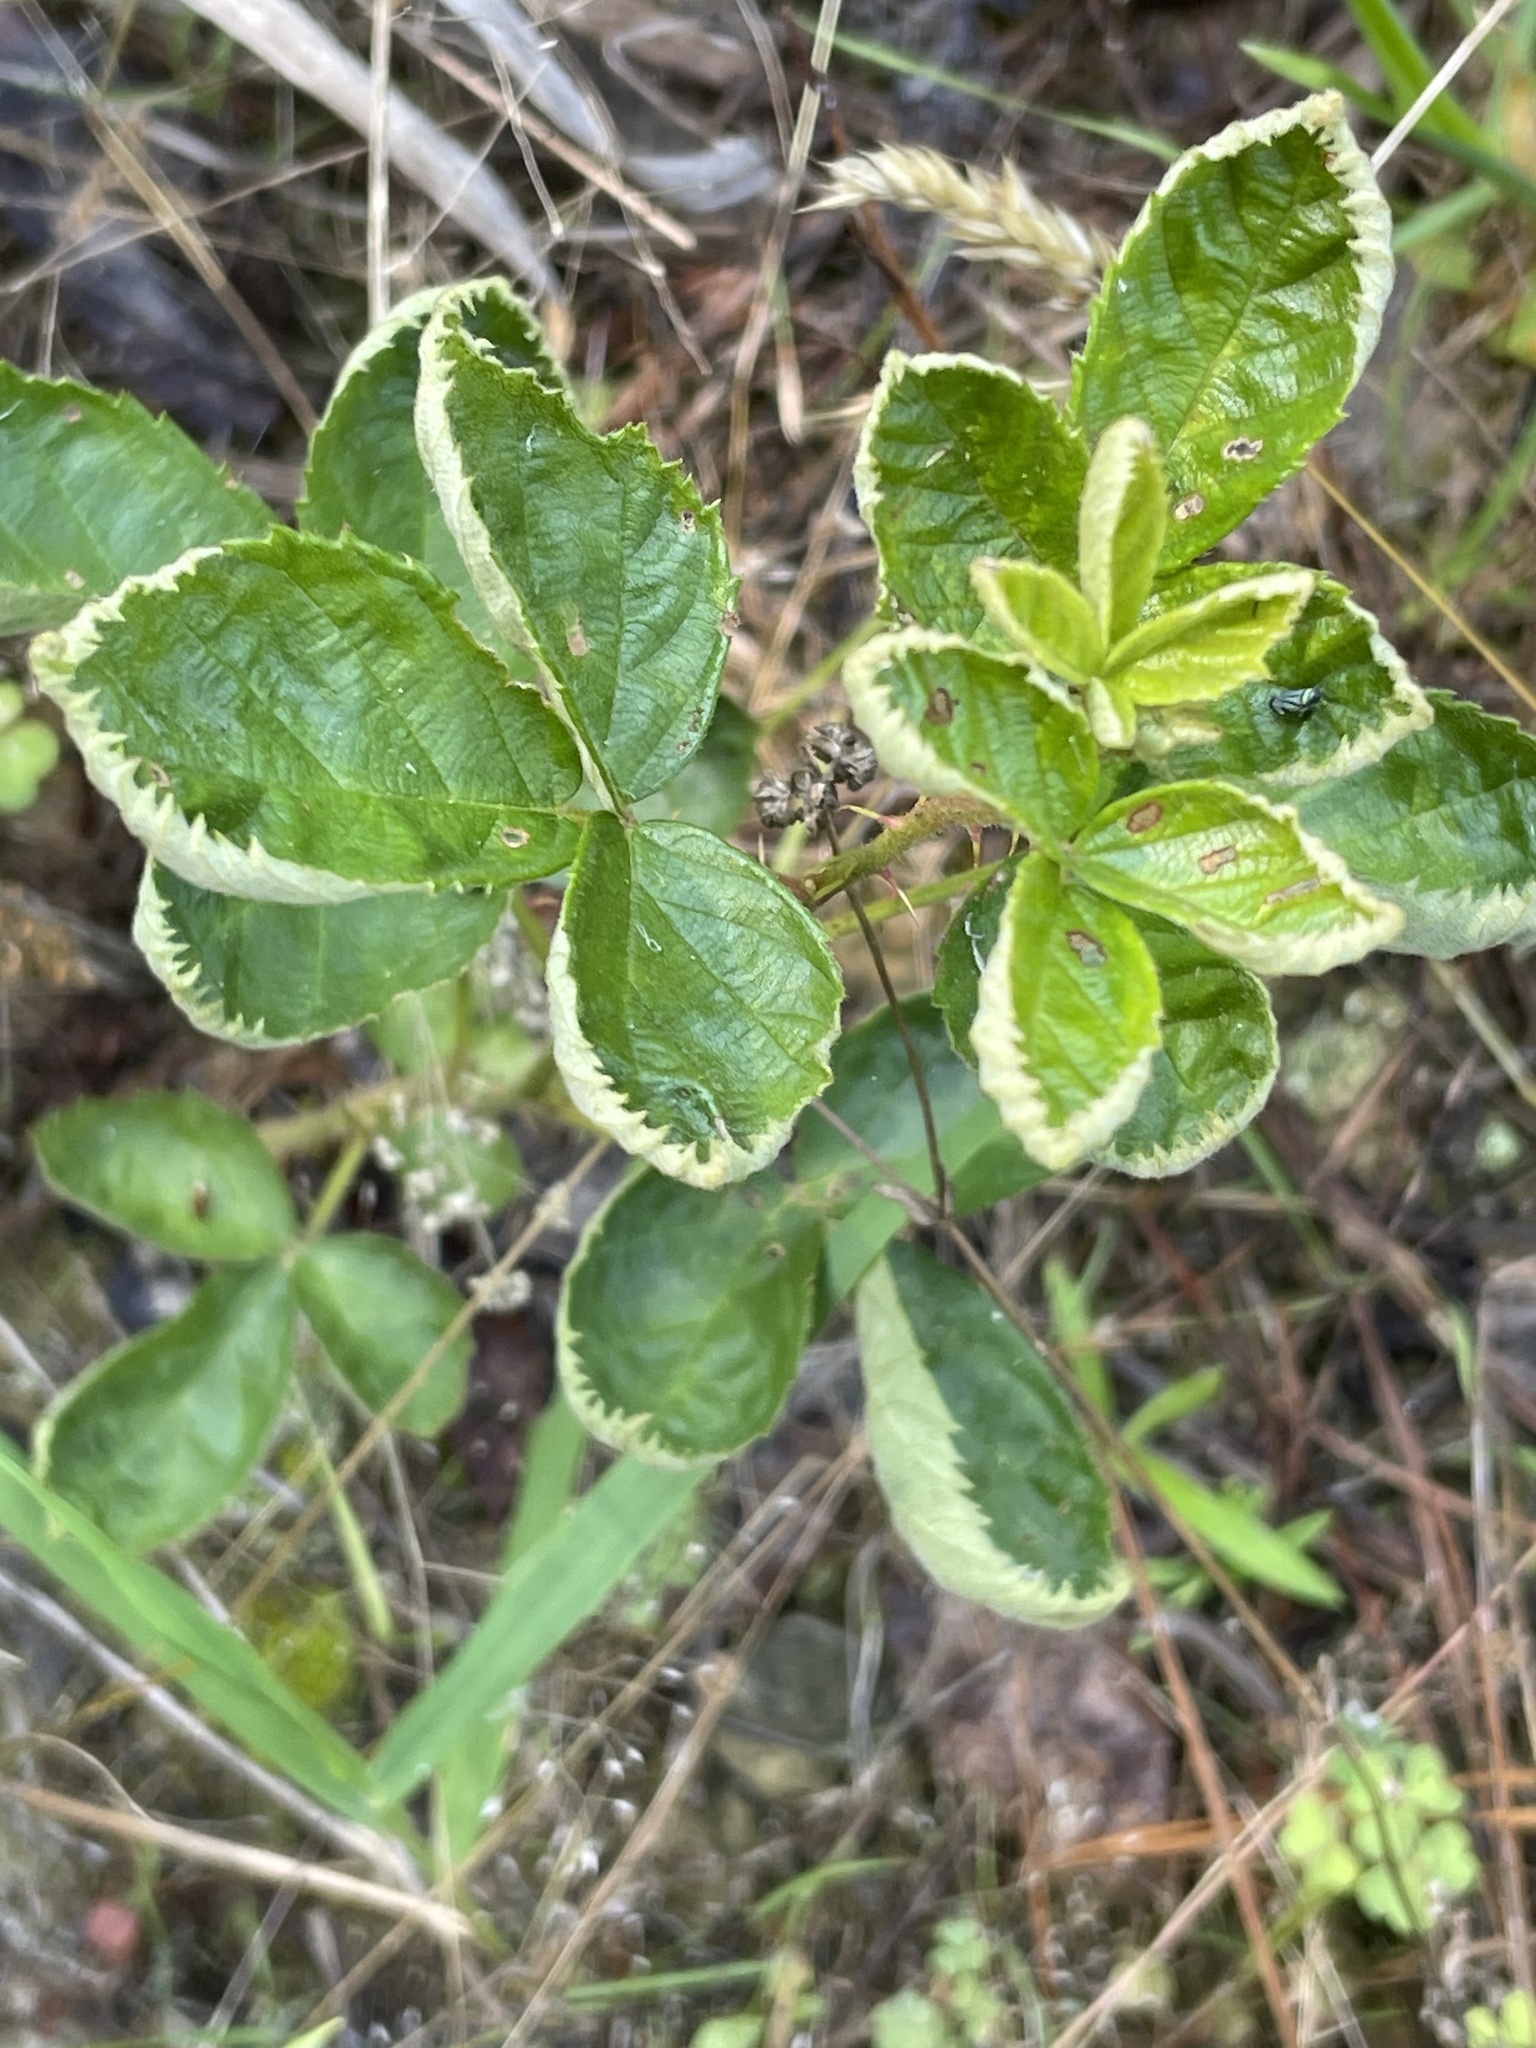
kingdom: Plantae
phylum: Tracheophyta
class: Magnoliopsida
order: Rosales
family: Rosaceae
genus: Rubus
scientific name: Rubus cuneifolius
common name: American bramble
